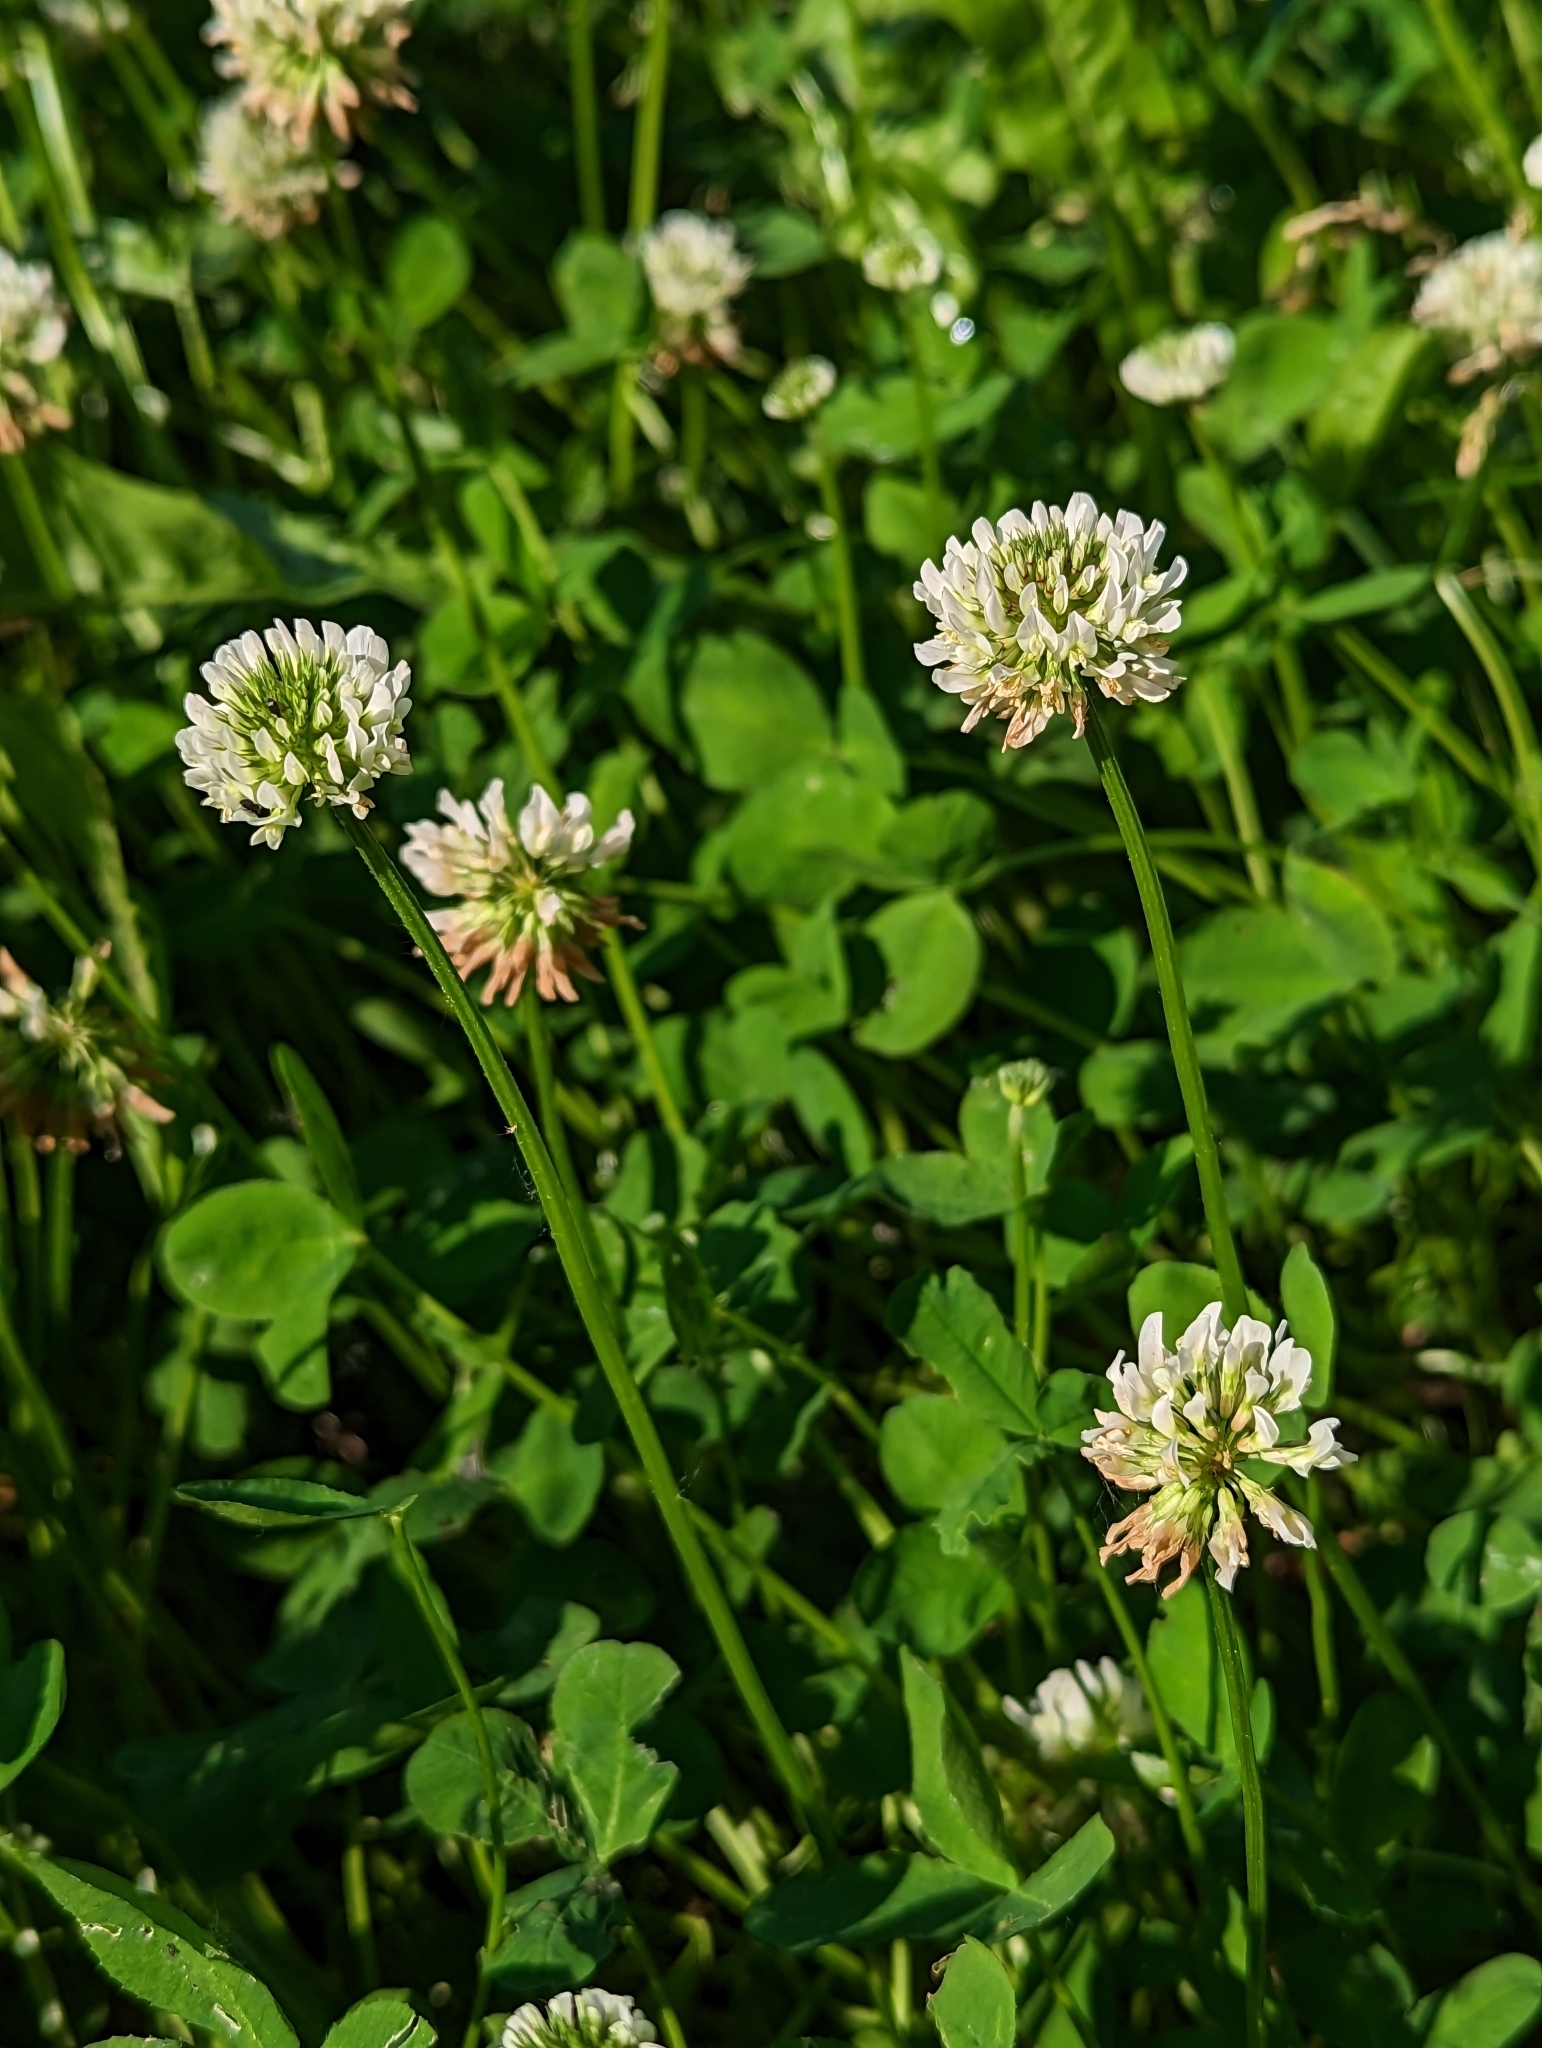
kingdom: Plantae
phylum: Tracheophyta
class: Magnoliopsida
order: Fabales
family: Fabaceae
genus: Trifolium
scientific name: Trifolium repens
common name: White clover
